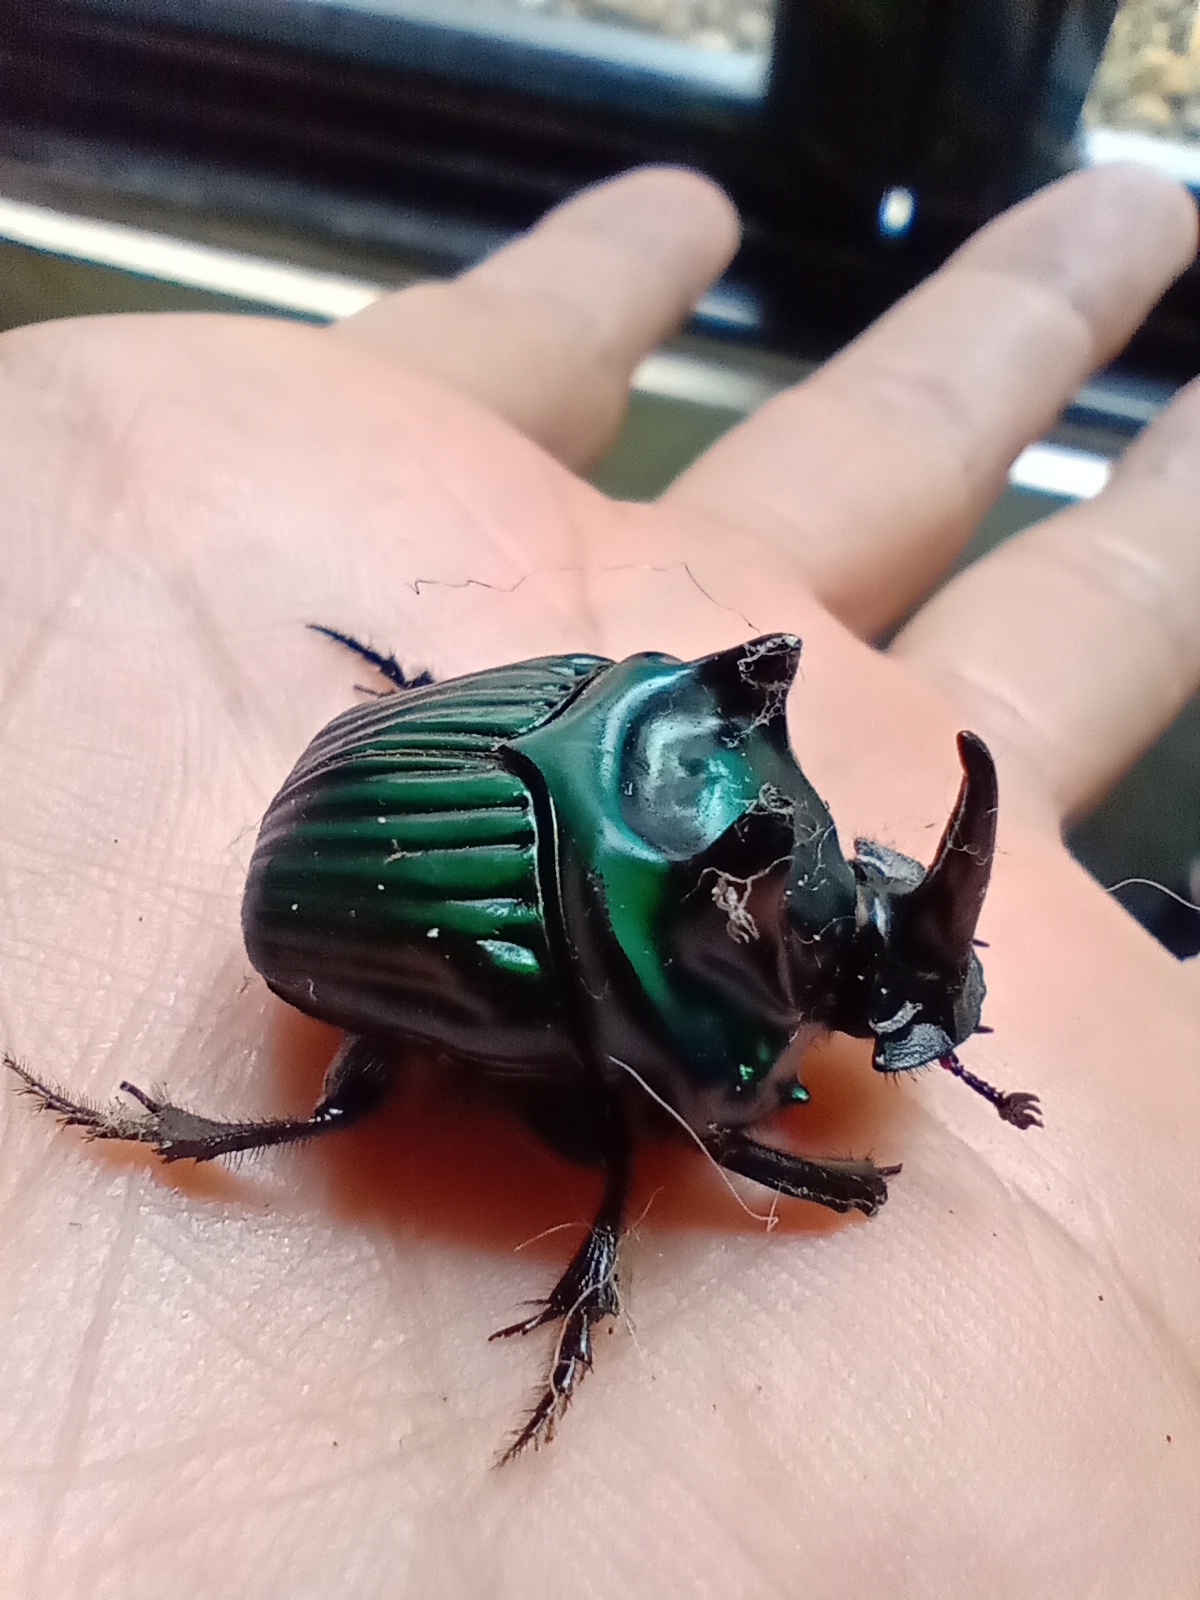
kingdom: Animalia
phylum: Arthropoda
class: Insecta
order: Coleoptera
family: Scarabaeidae
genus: Oxysternon
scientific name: Oxysternon conspicillatum
